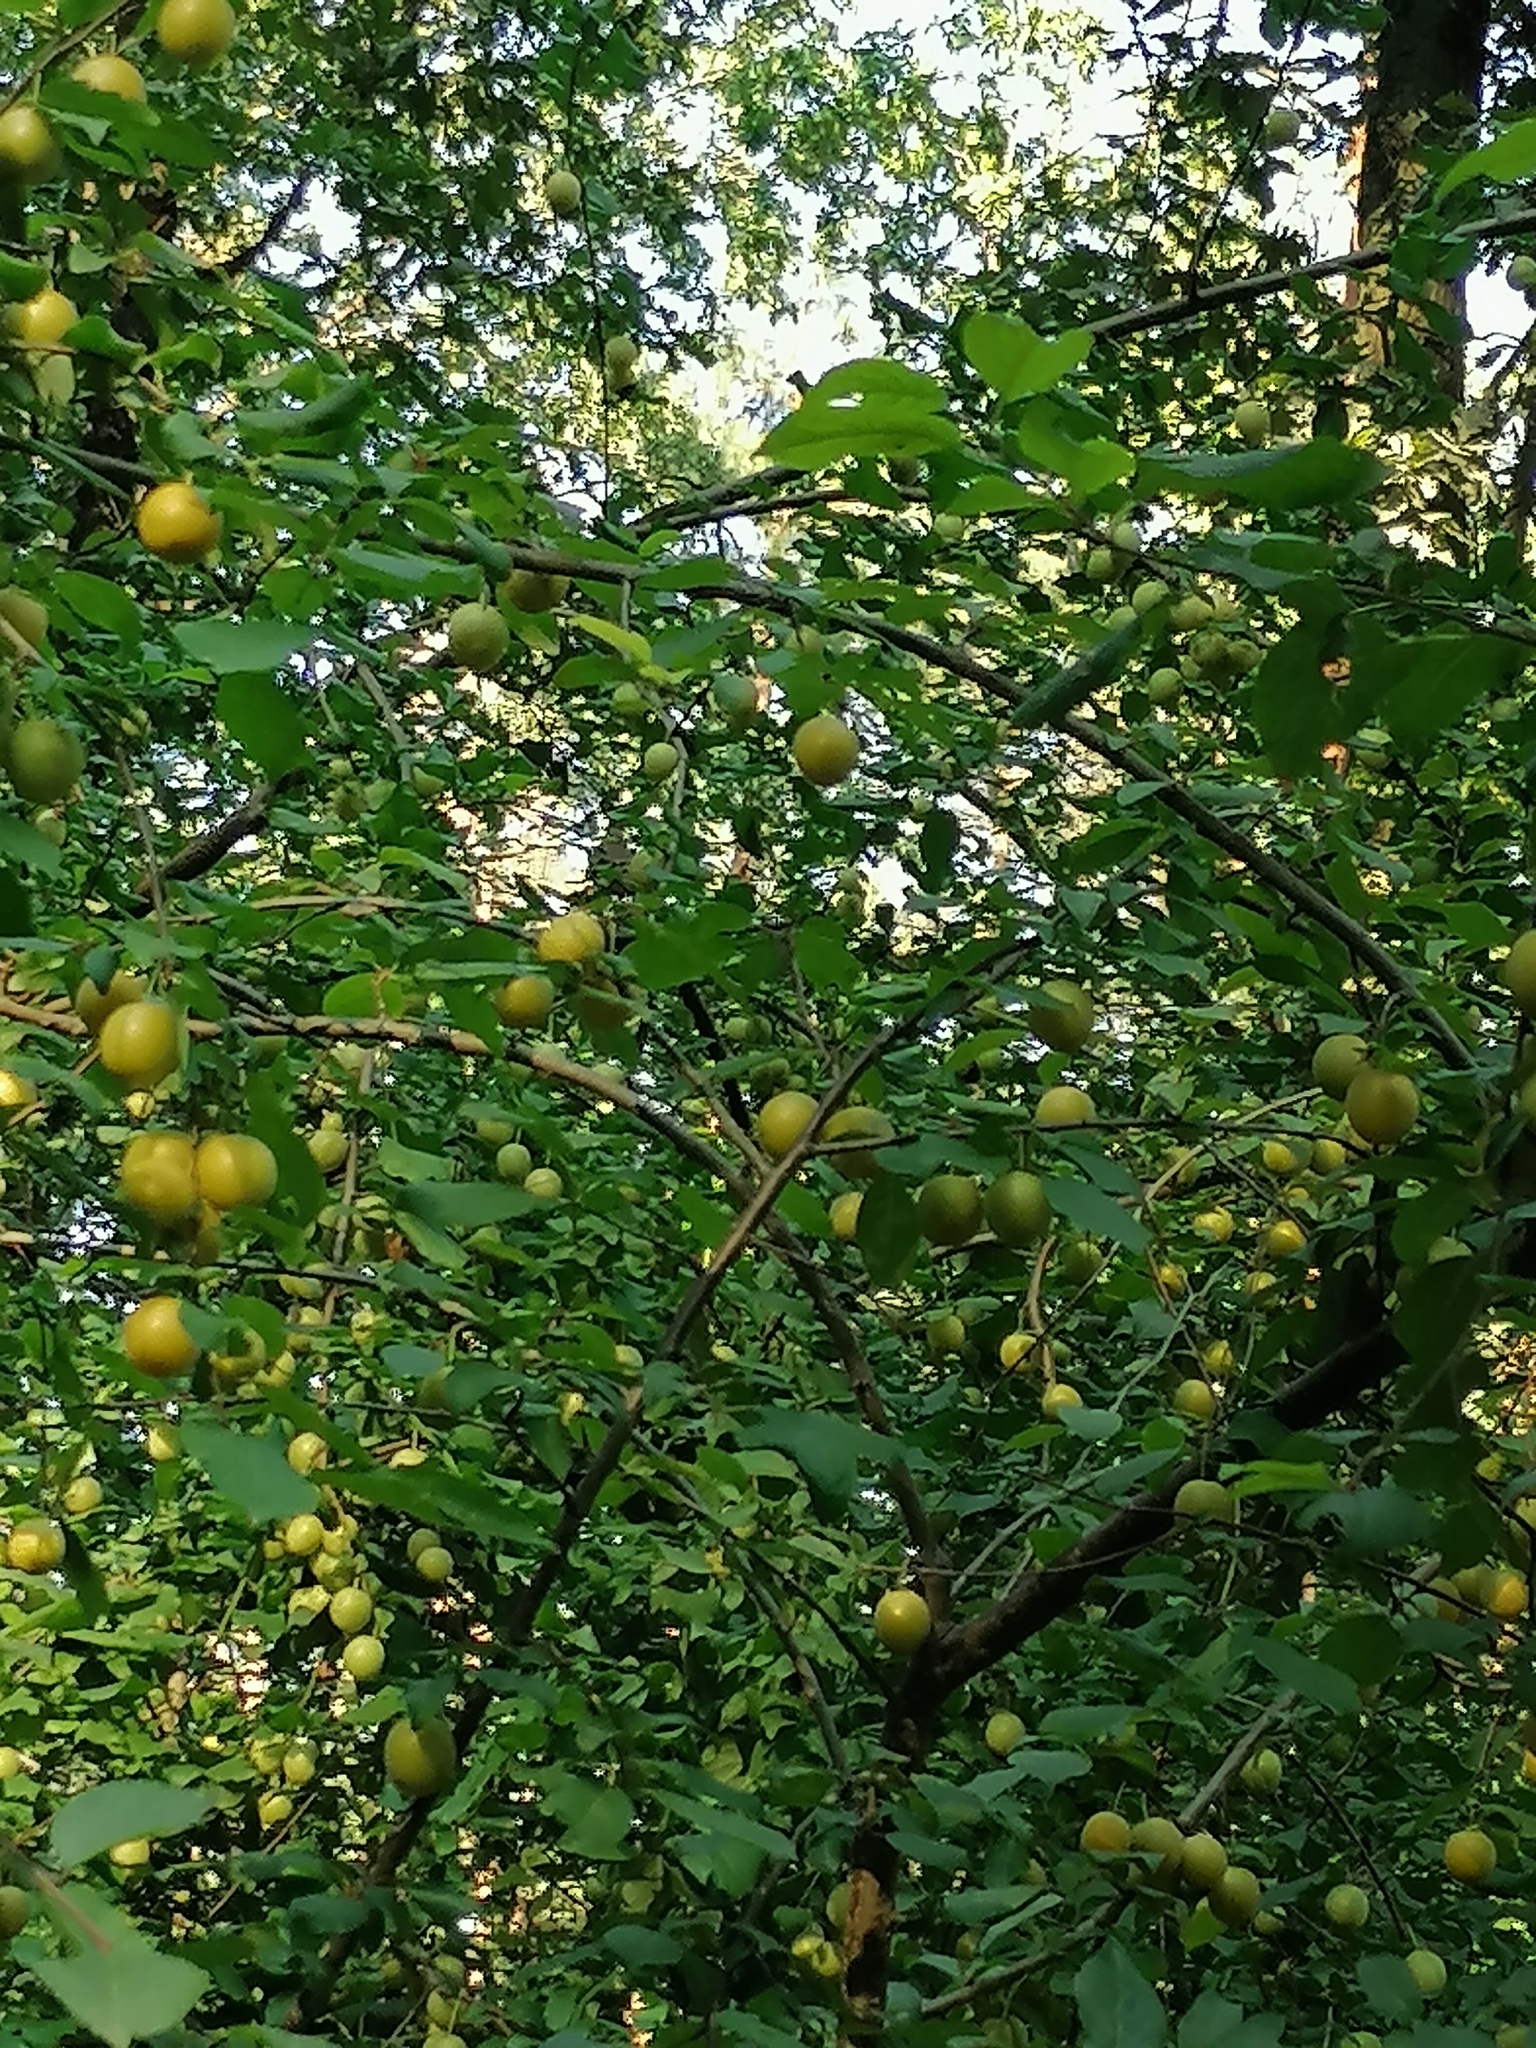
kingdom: Plantae
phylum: Tracheophyta
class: Magnoliopsida
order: Rosales
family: Rosaceae
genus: Prunus
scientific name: Prunus cerasifera
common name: Cherry plum
